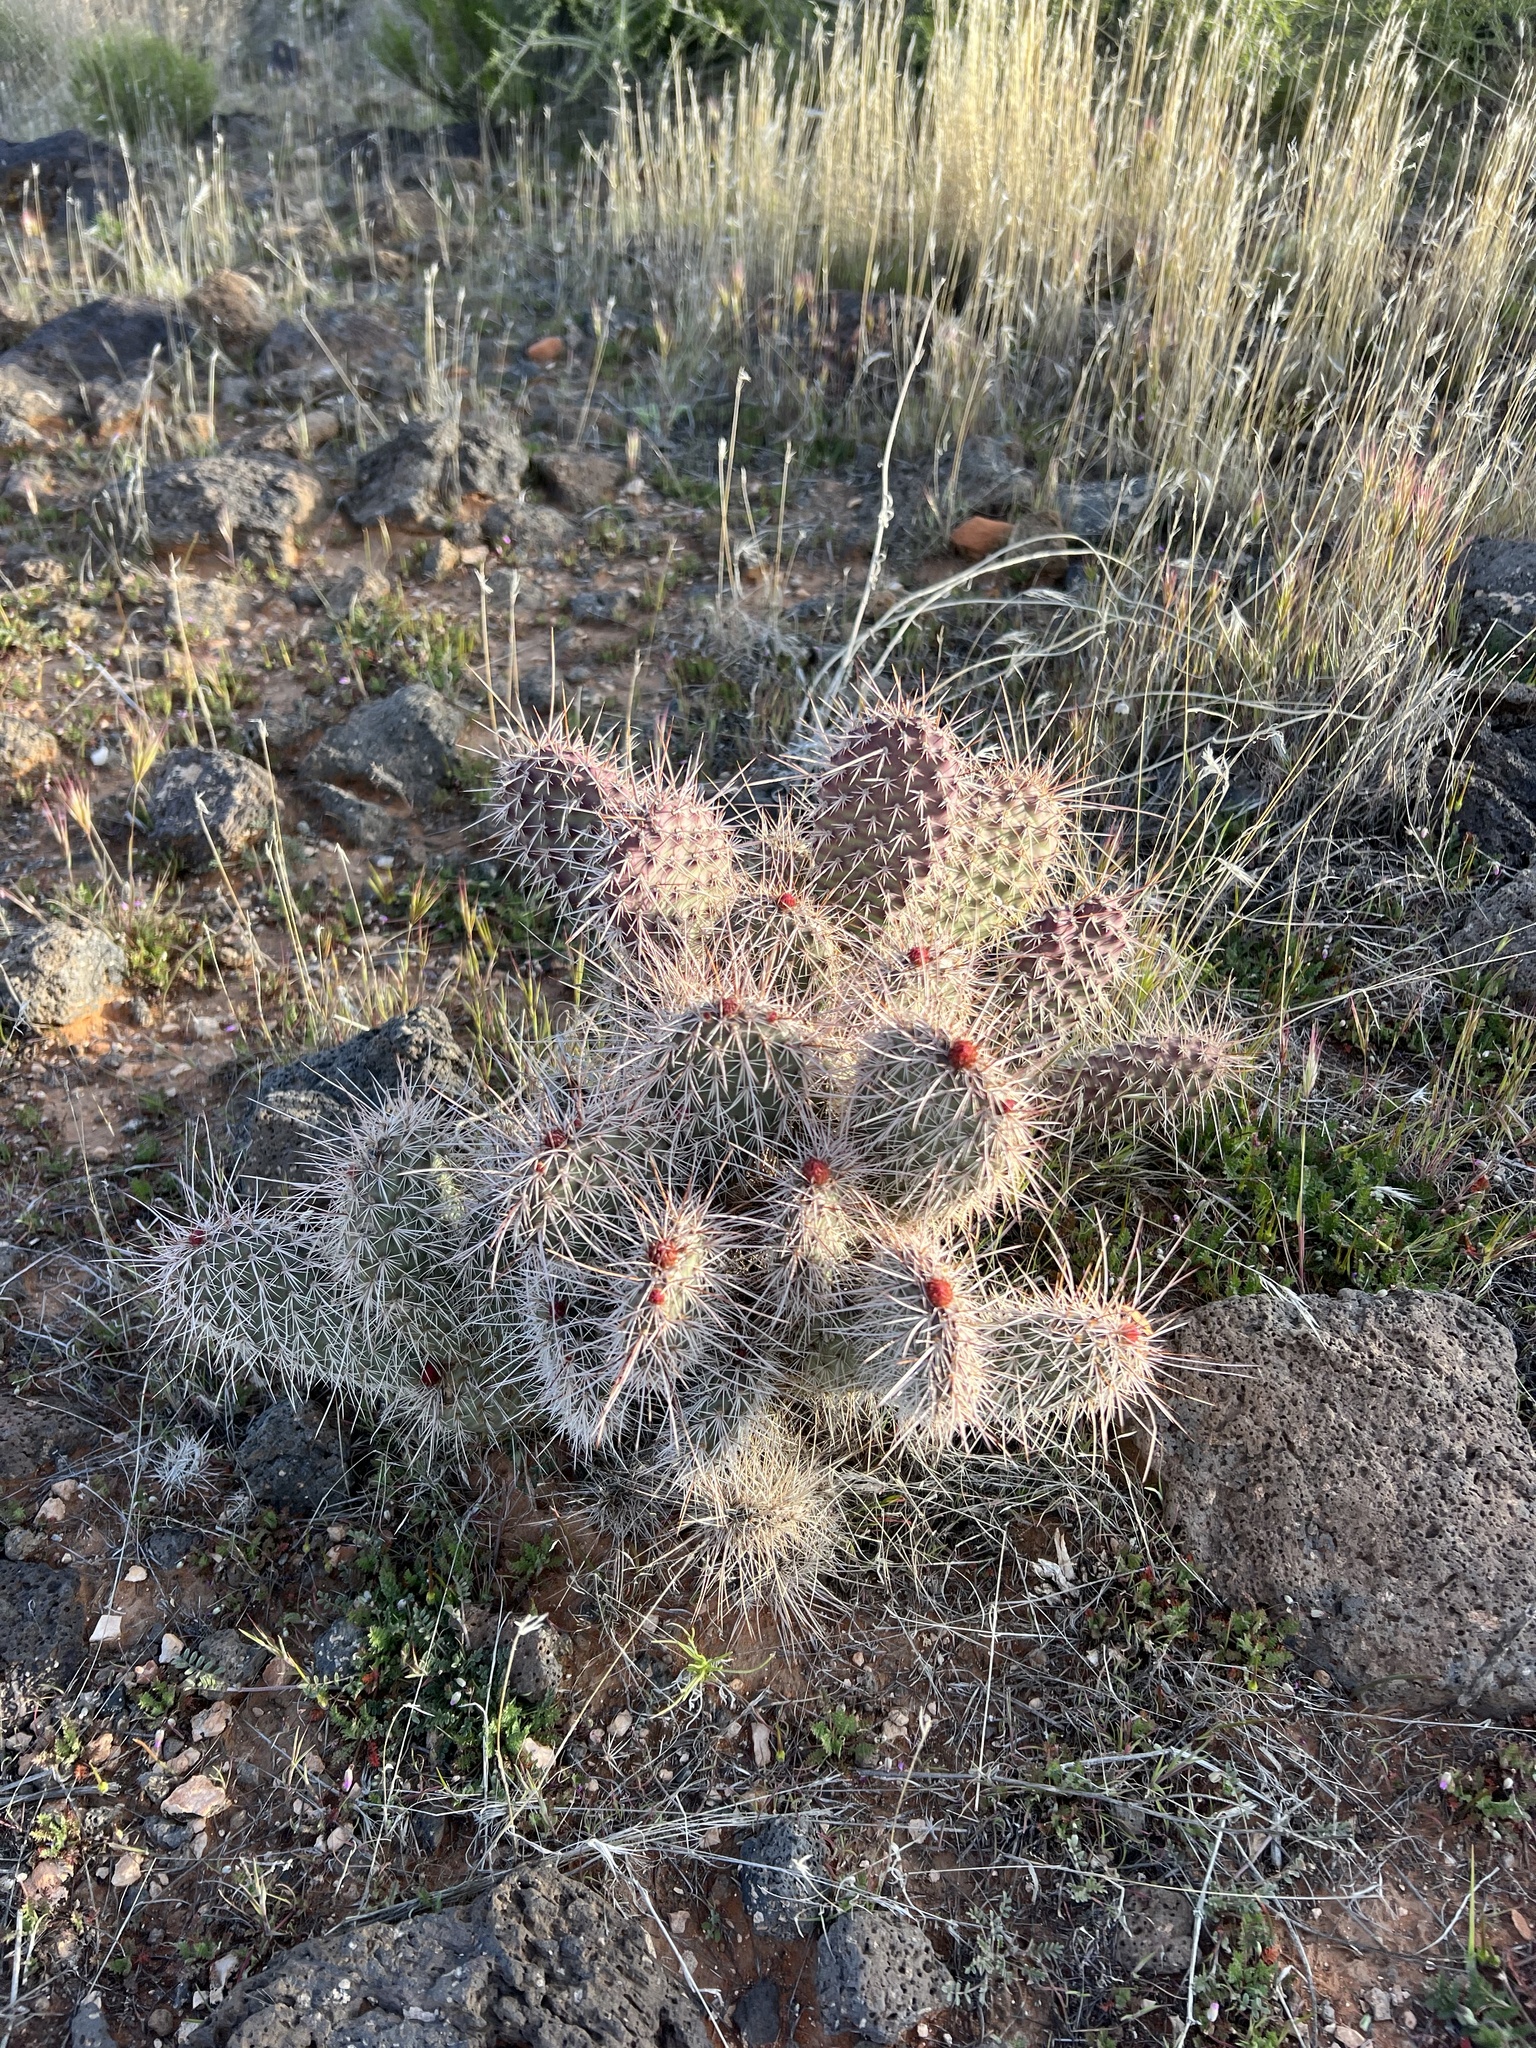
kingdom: Plantae
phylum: Tracheophyta
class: Magnoliopsida
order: Caryophyllales
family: Cactaceae
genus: Opuntia
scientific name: Opuntia polyacantha
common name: Plains prickly-pear
